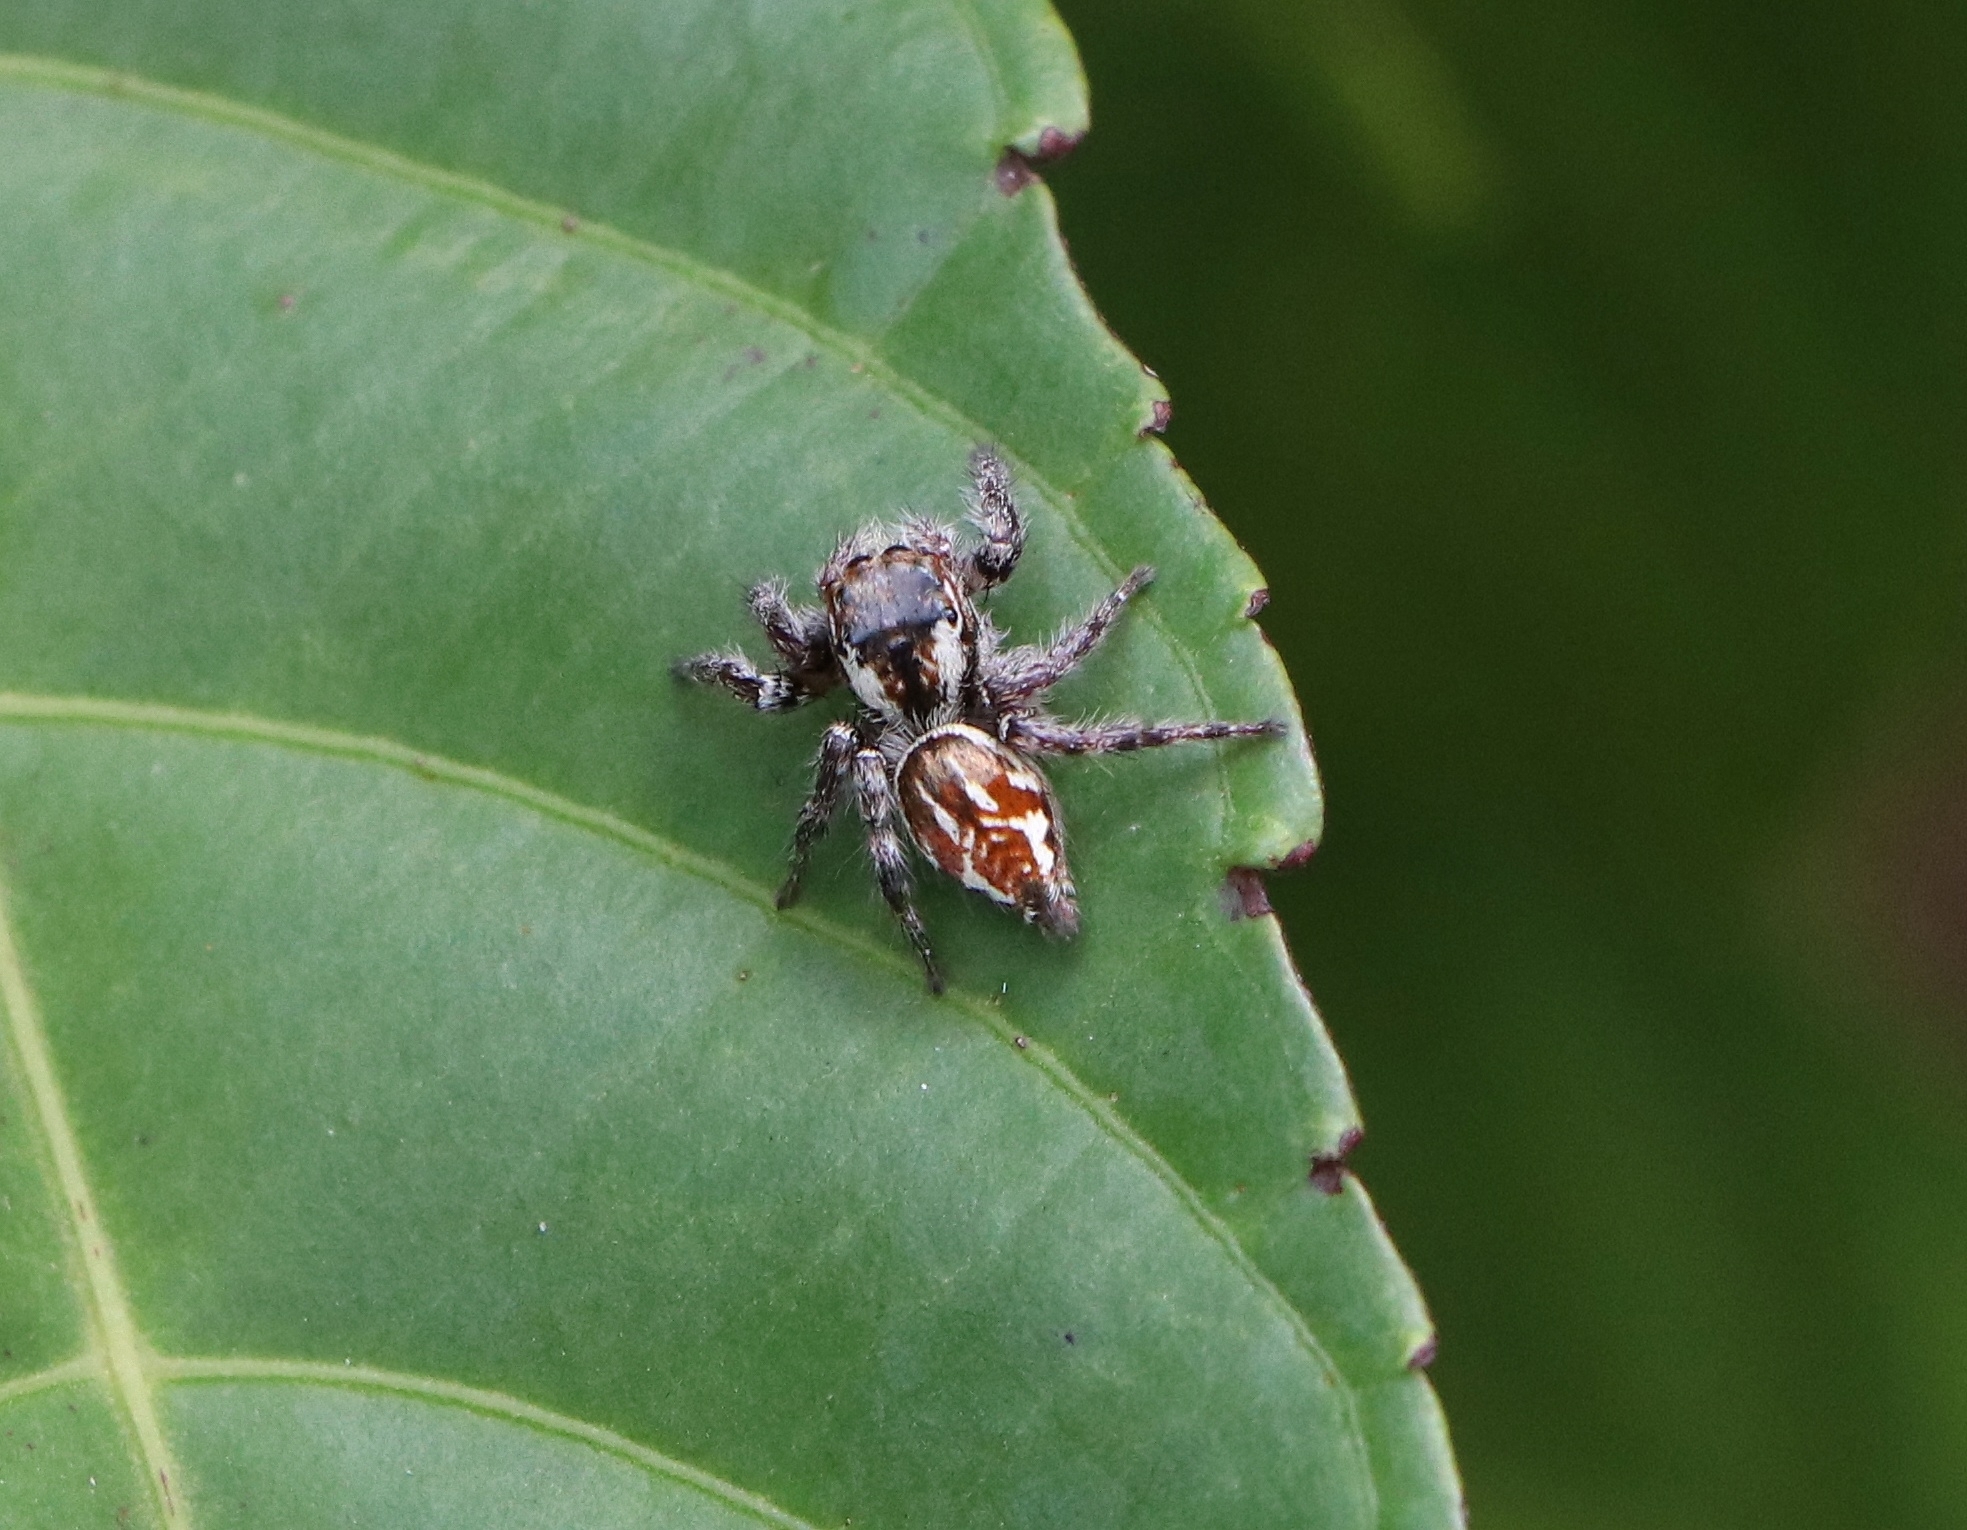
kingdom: Animalia
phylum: Arthropoda
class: Arachnida
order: Araneae
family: Salticidae
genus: Carrhotus
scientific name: Carrhotus viduus
